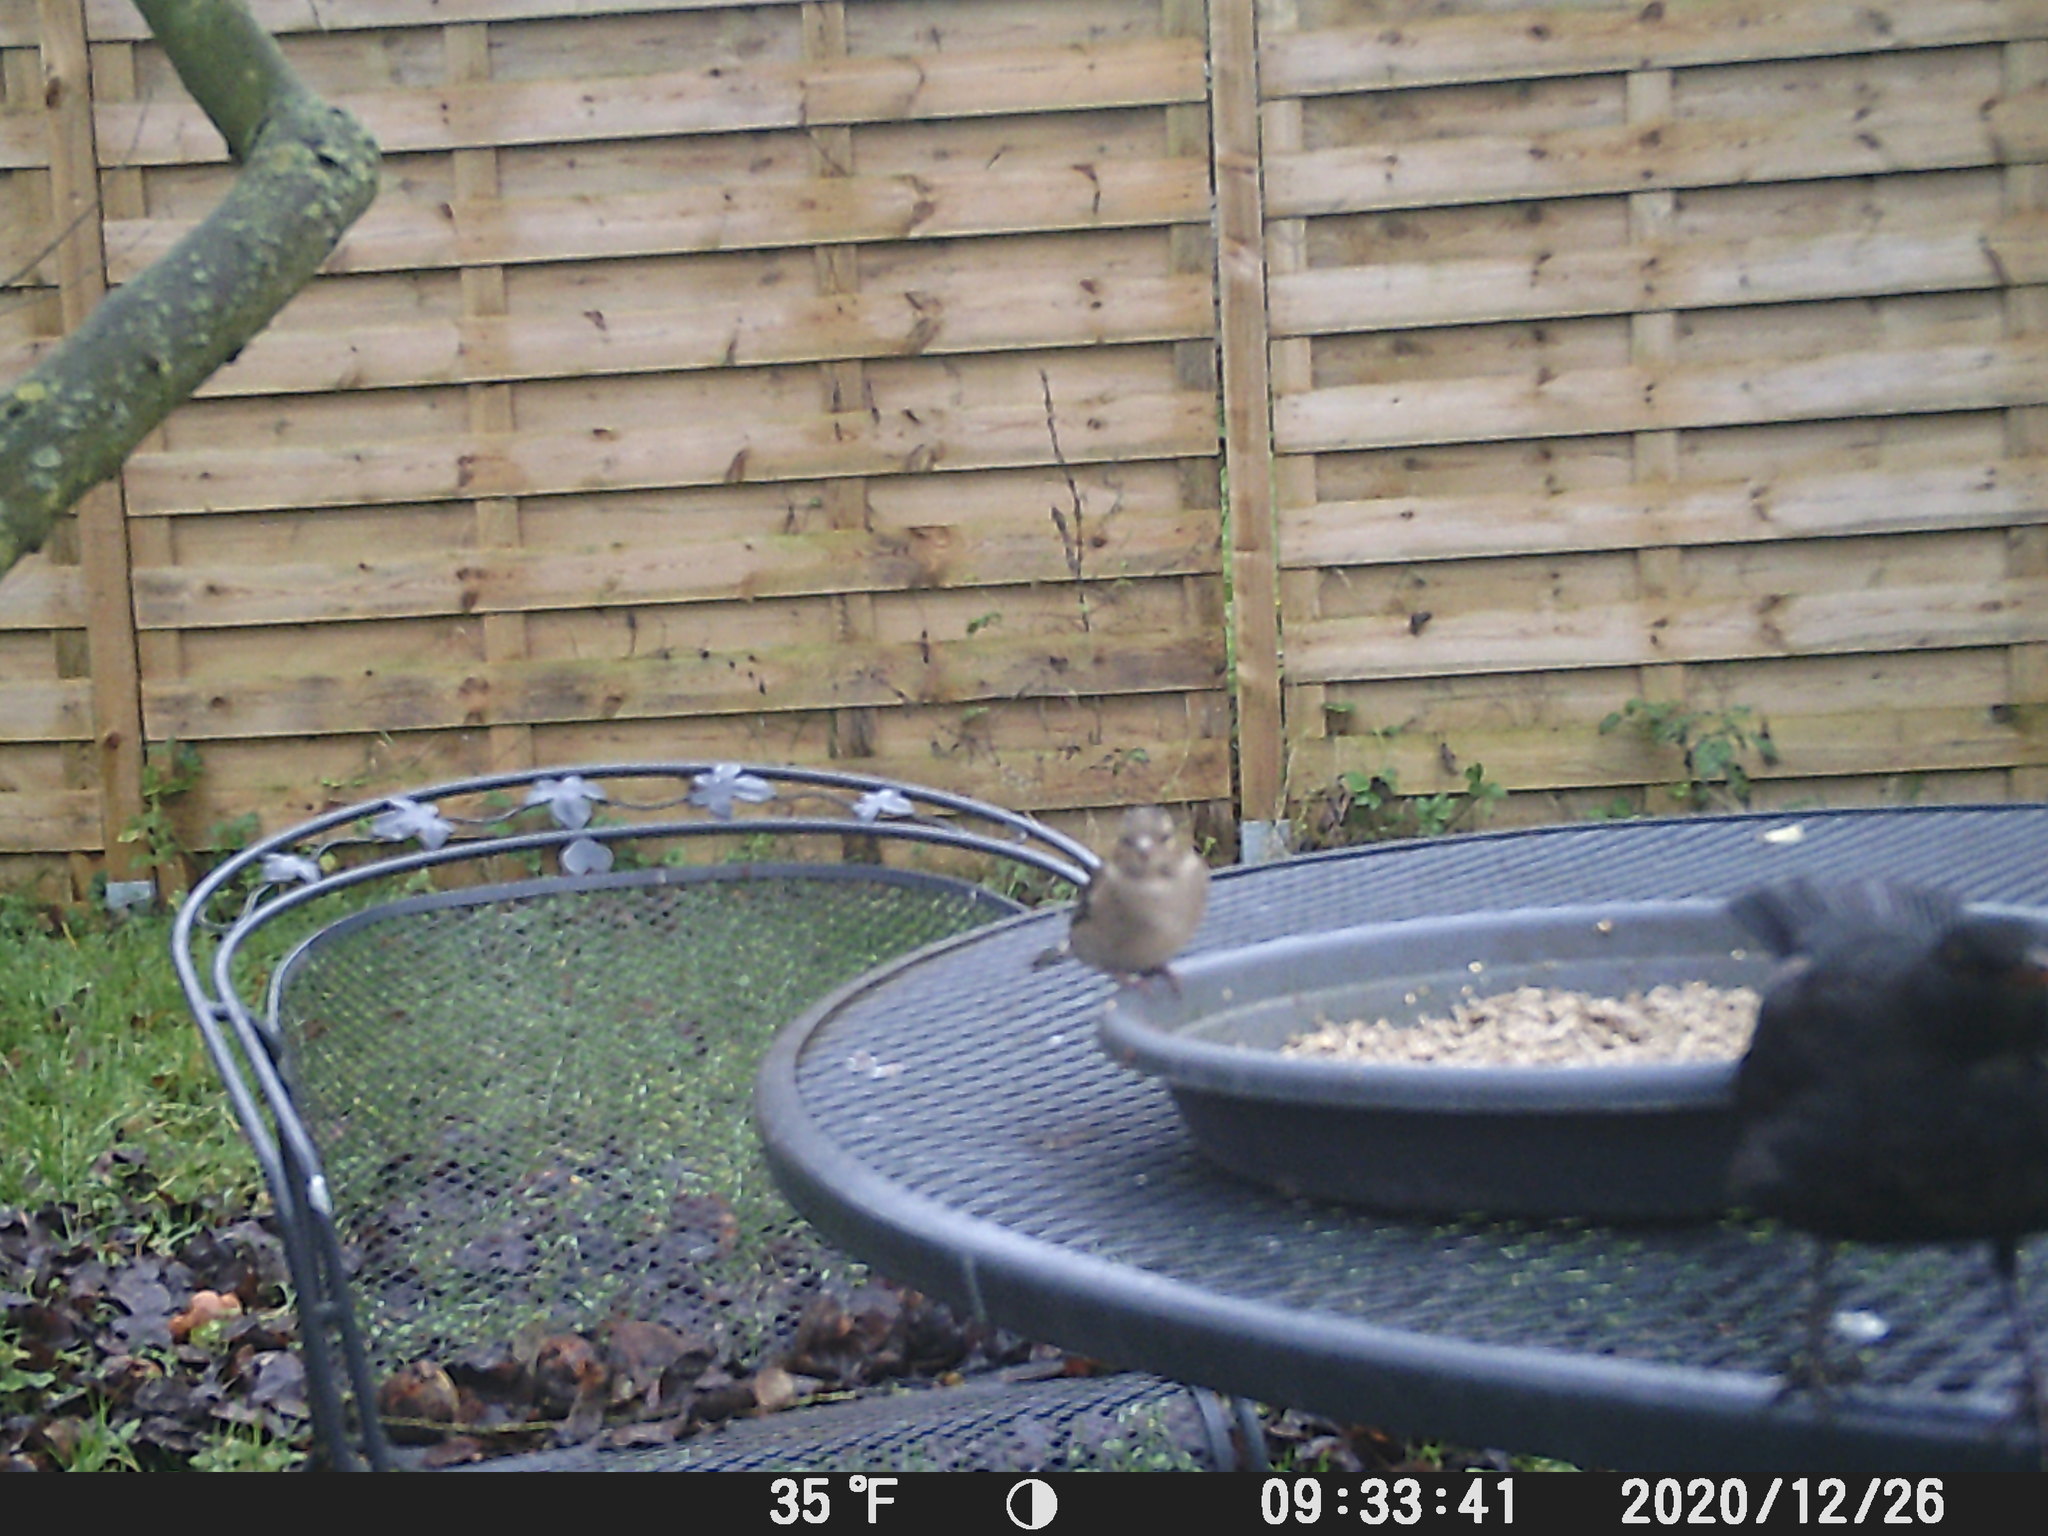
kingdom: Animalia
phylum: Chordata
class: Aves
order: Passeriformes
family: Fringillidae
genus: Fringilla
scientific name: Fringilla coelebs
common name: Common chaffinch
